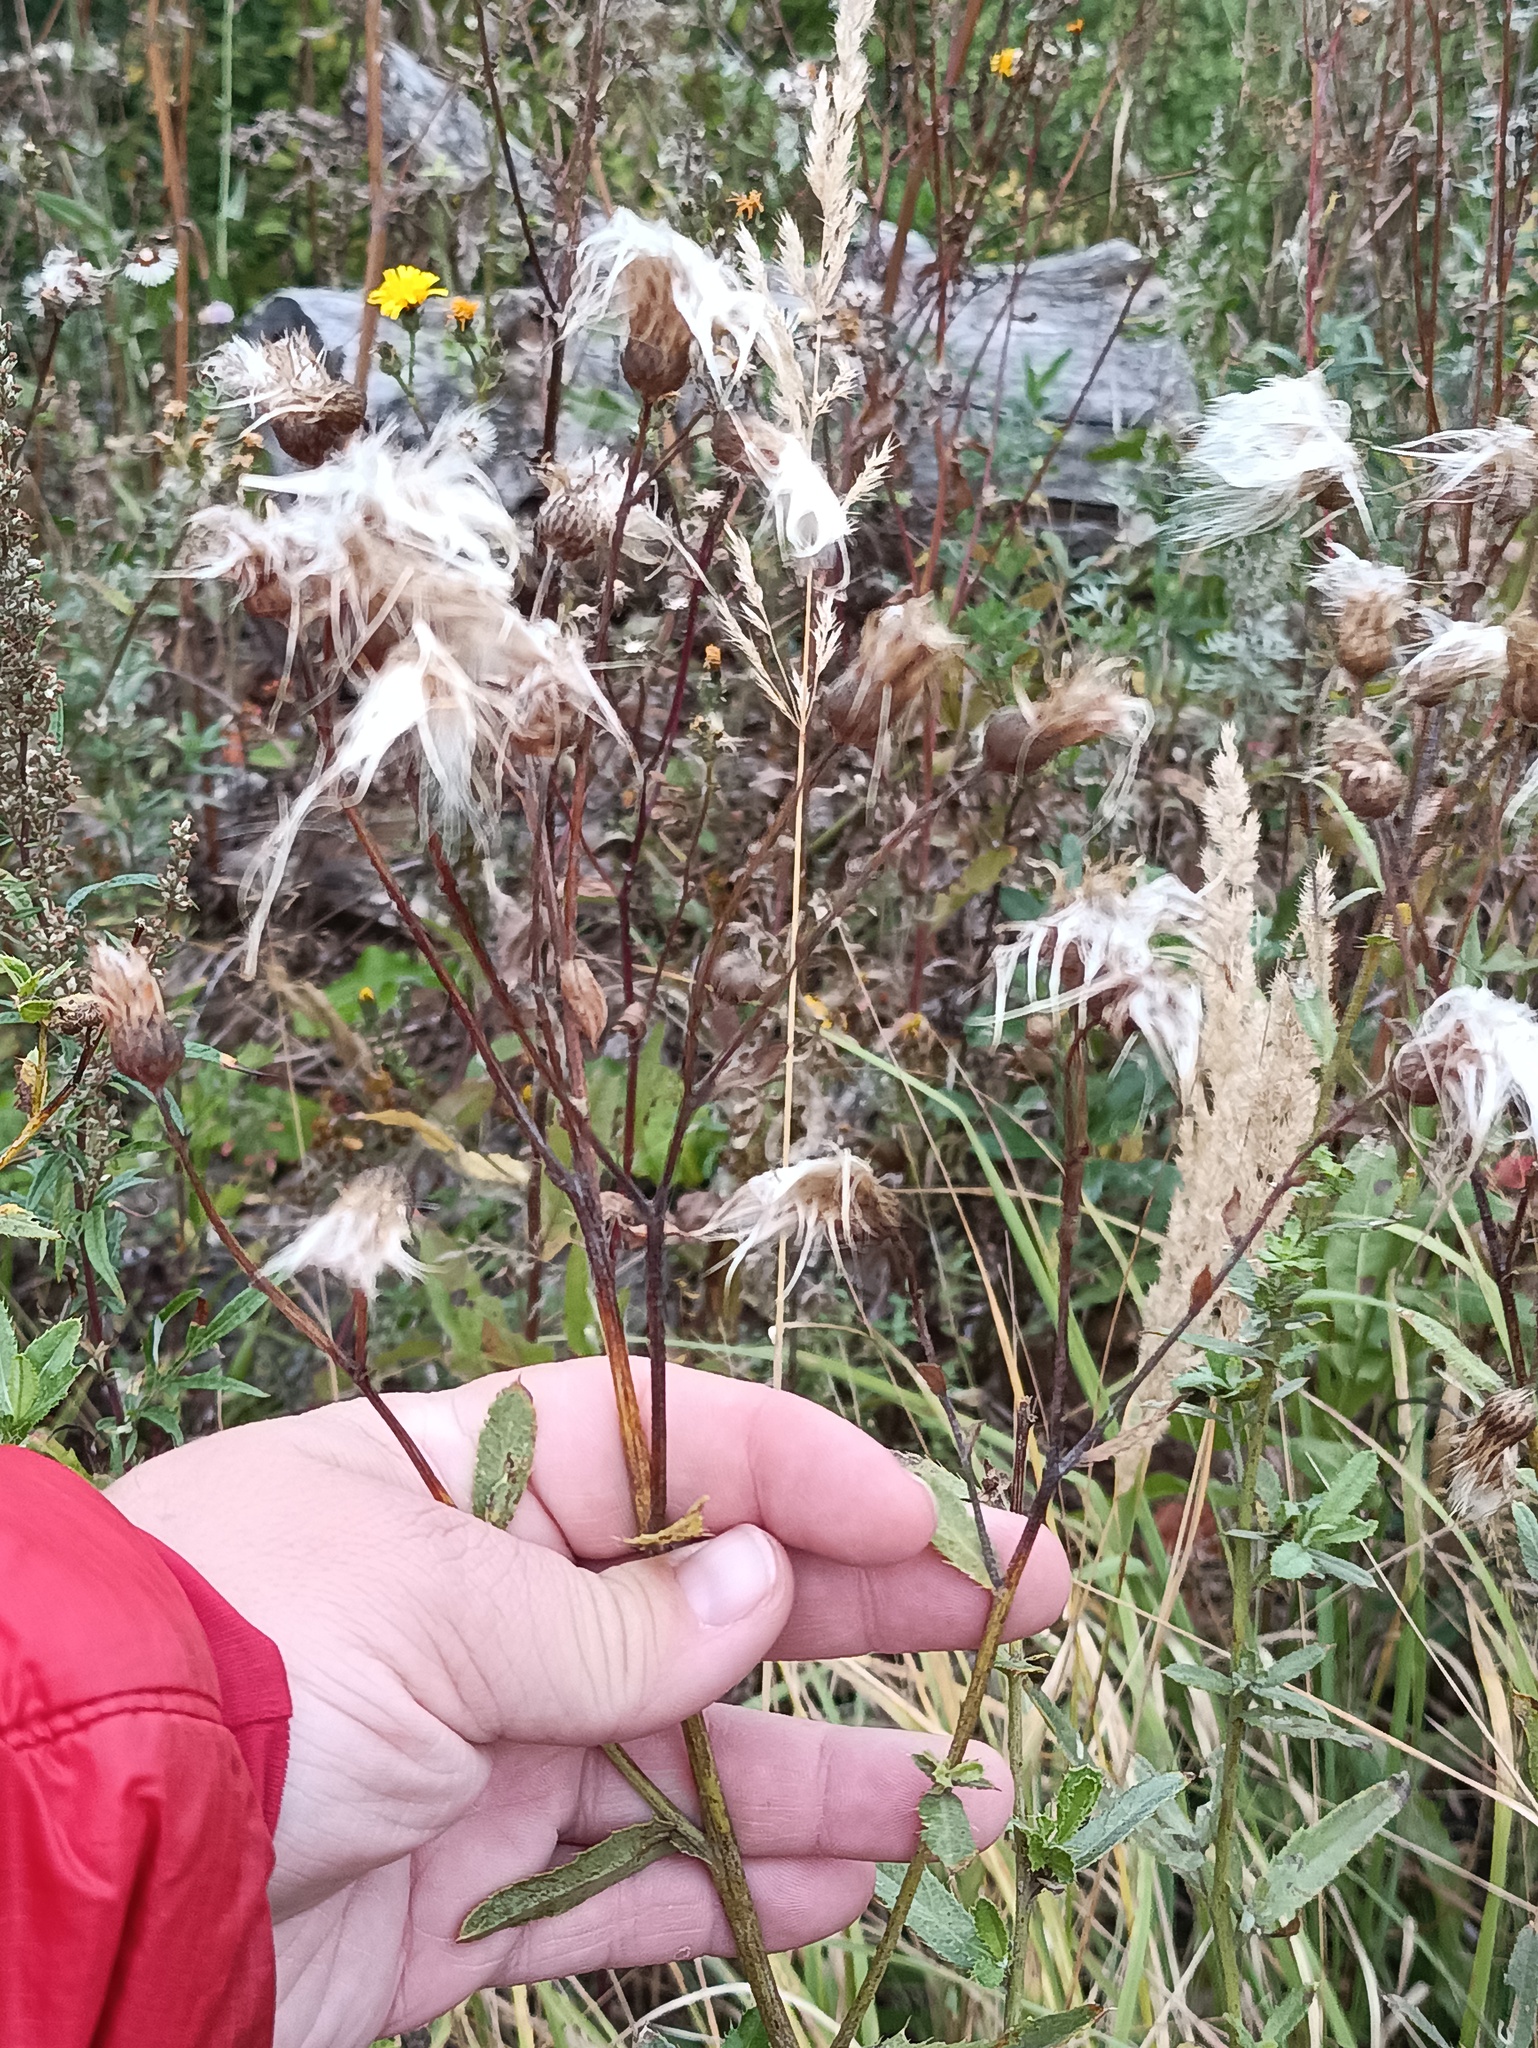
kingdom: Plantae
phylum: Tracheophyta
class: Magnoliopsida
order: Asterales
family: Asteraceae
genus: Cirsium
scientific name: Cirsium arvense
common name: Creeping thistle
